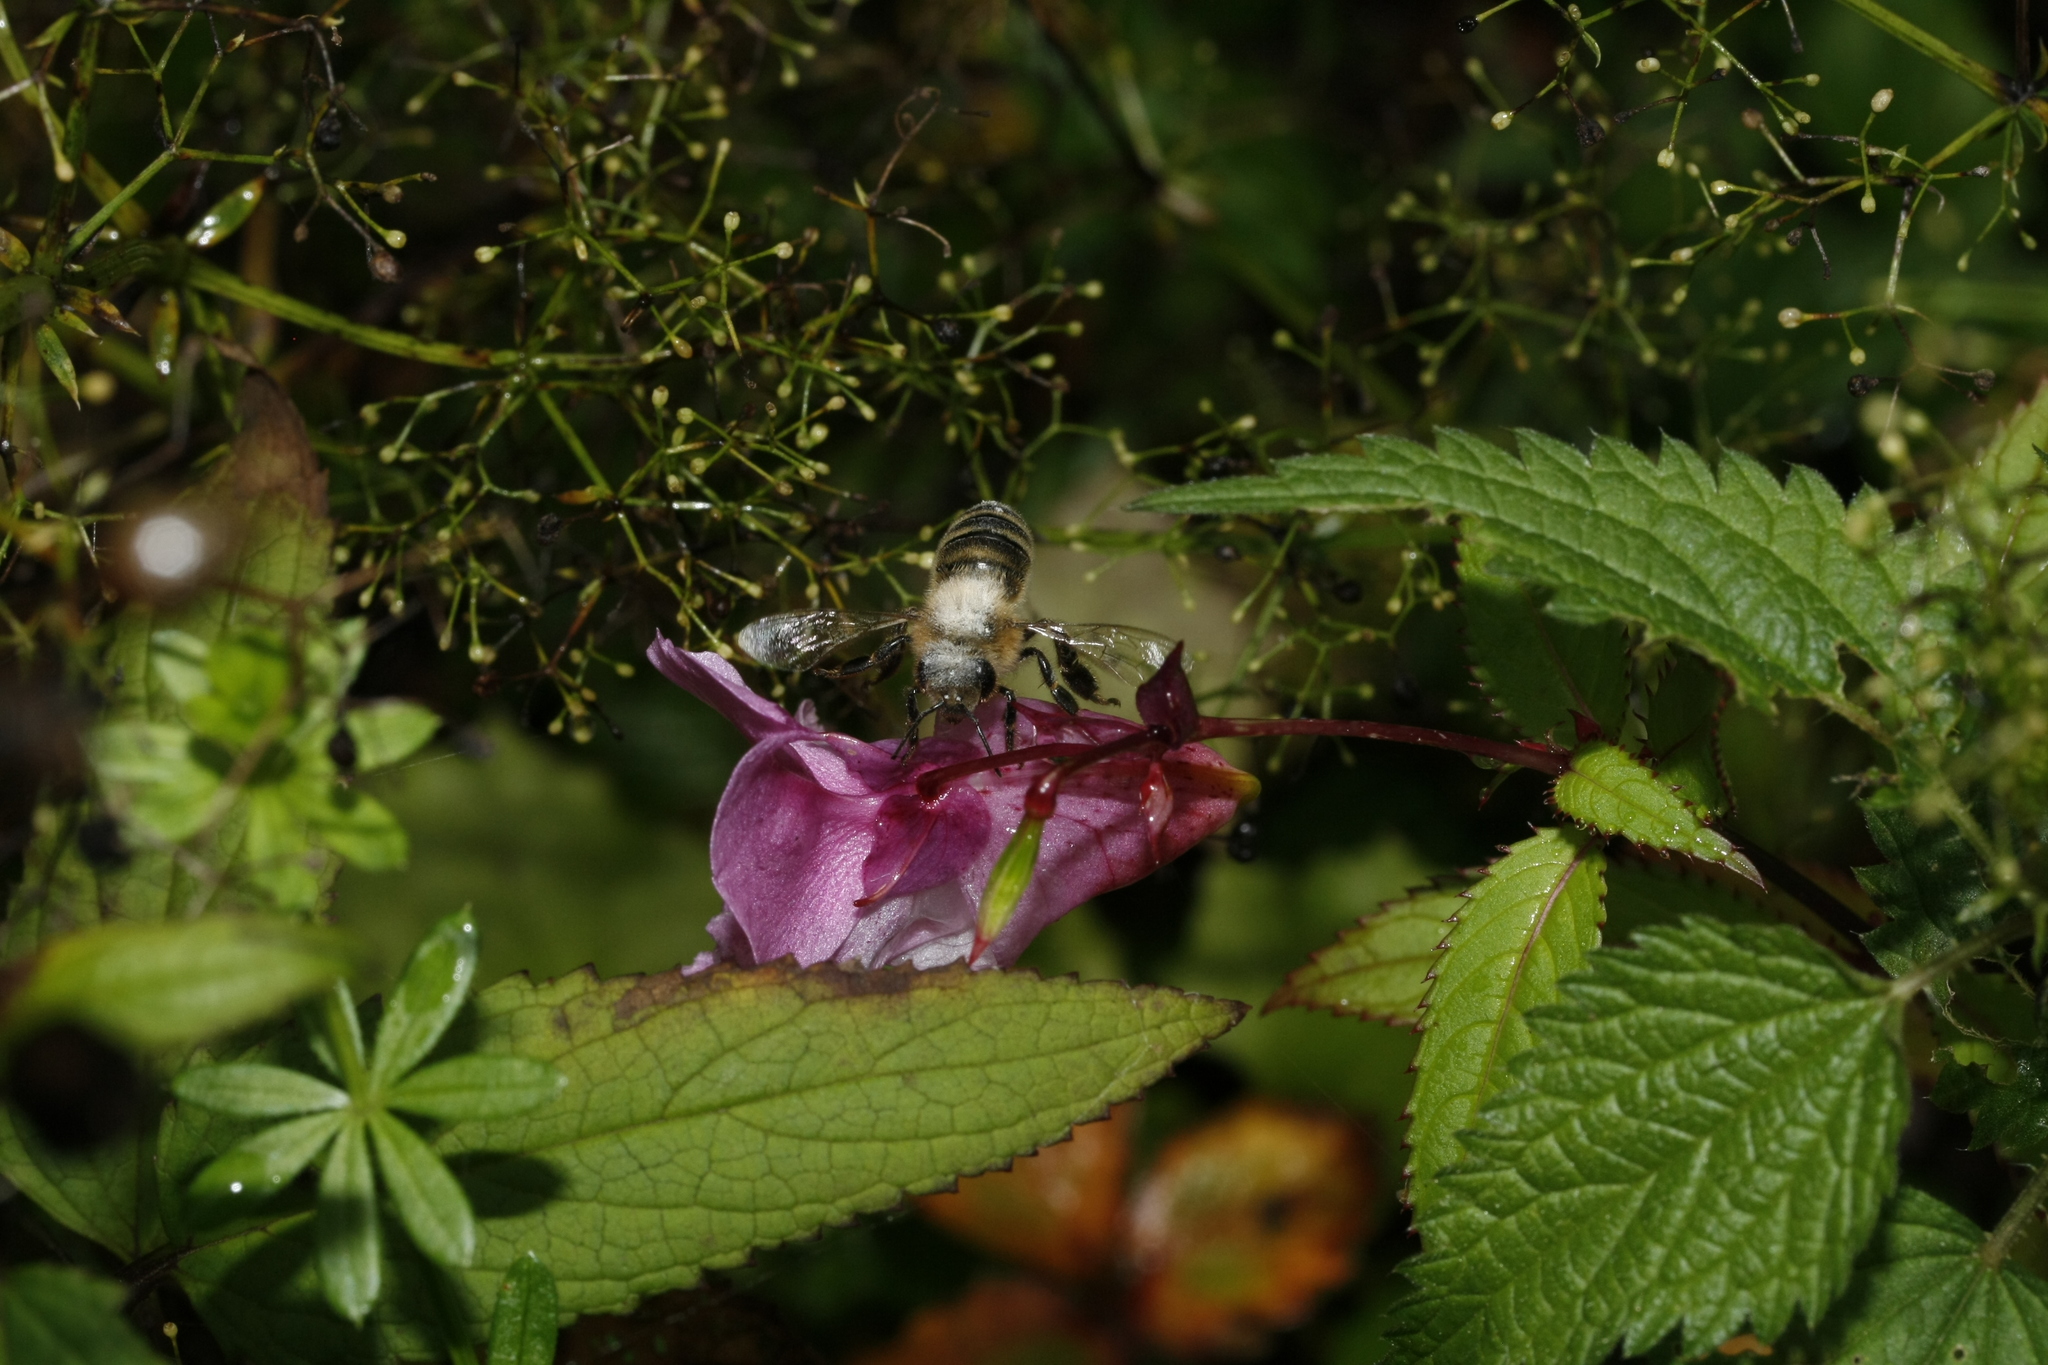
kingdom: Animalia
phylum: Arthropoda
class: Insecta
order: Hymenoptera
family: Apidae
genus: Apis
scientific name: Apis mellifera
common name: Honey bee
